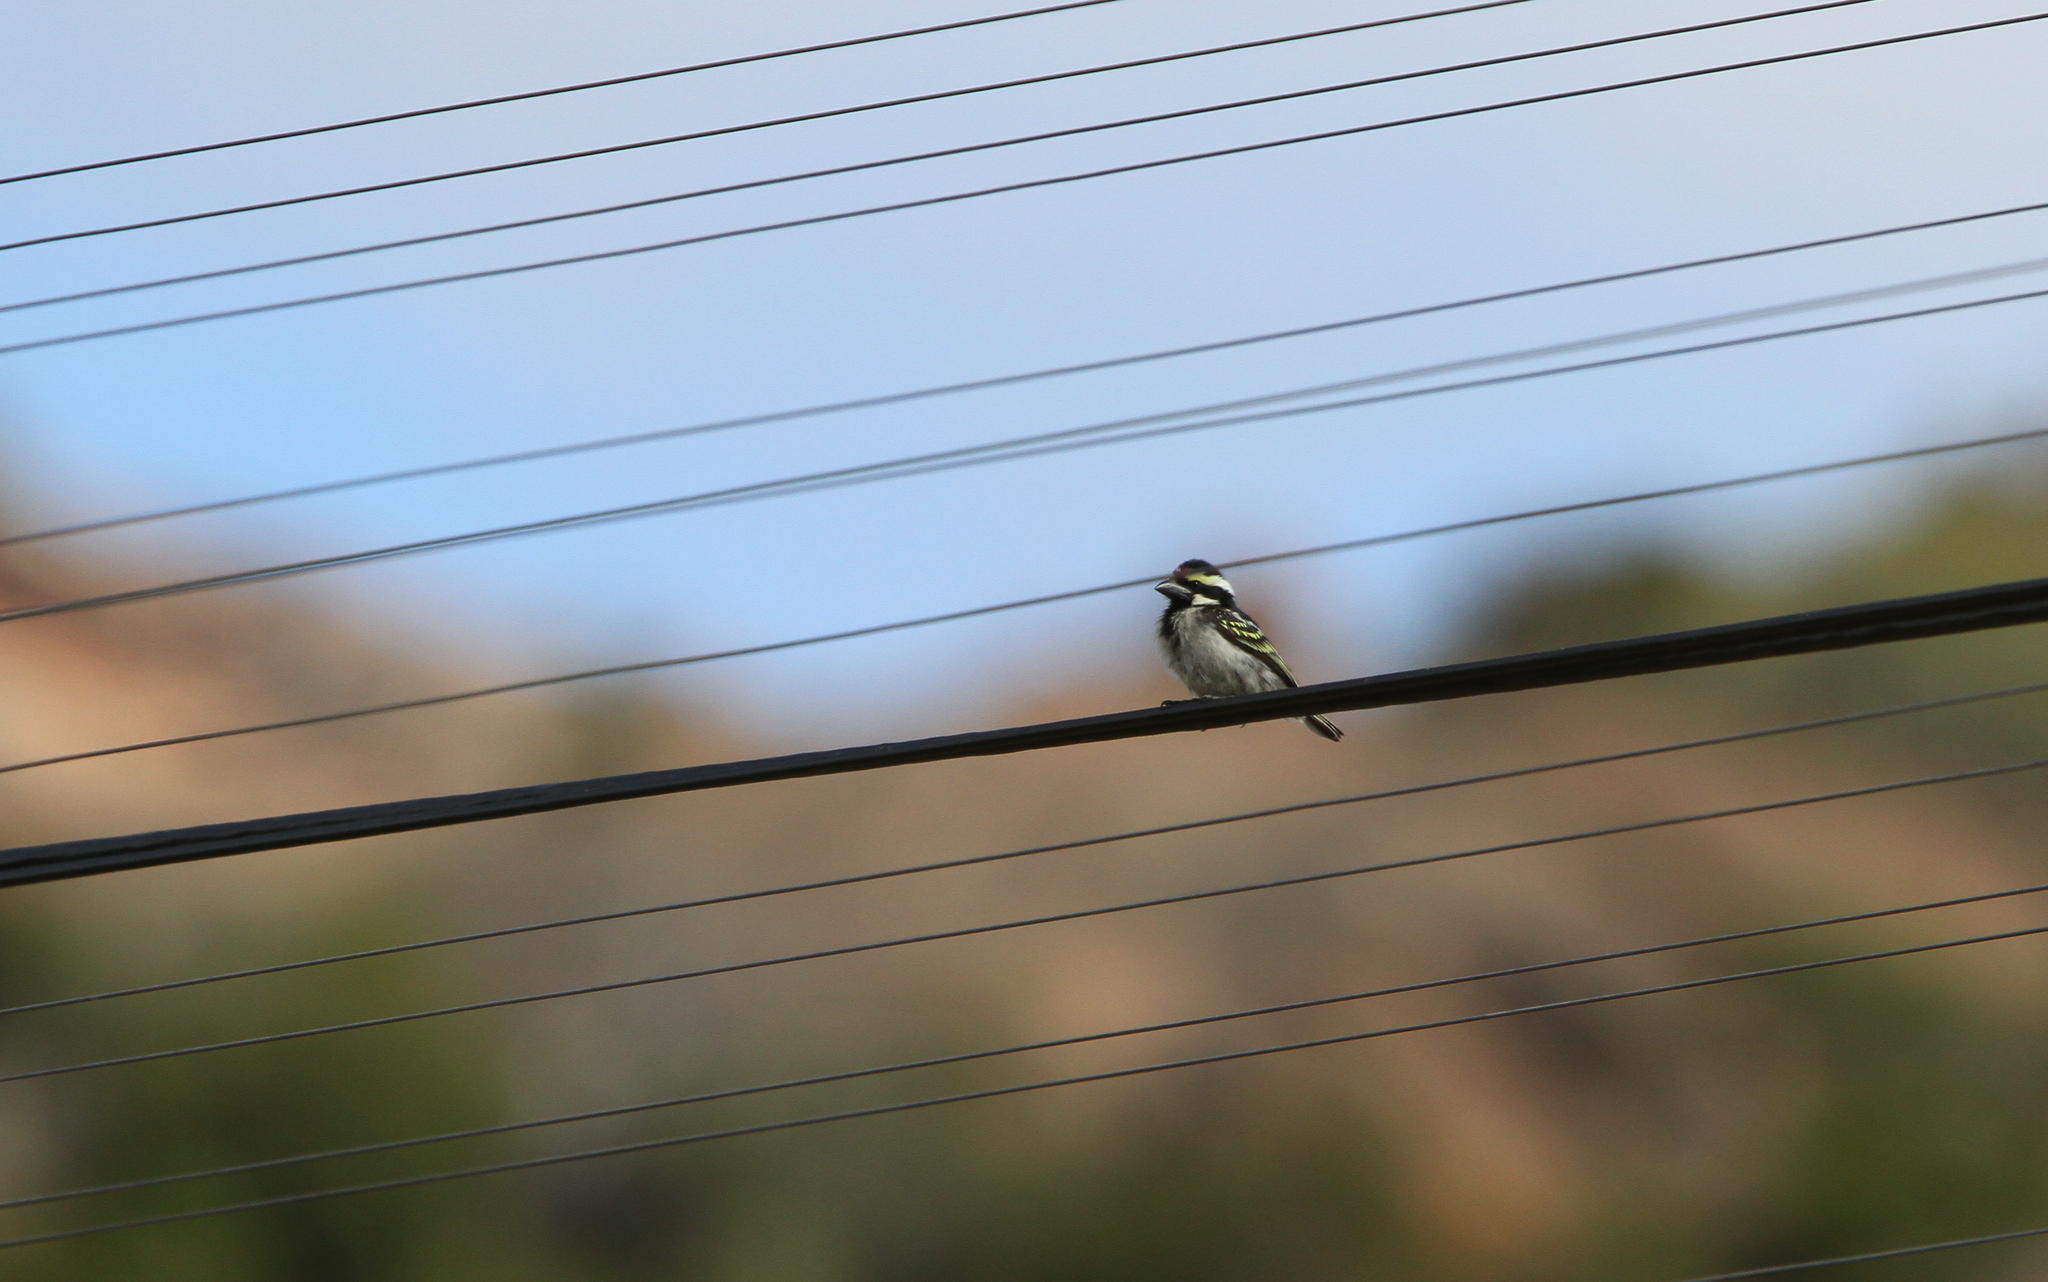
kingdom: Animalia
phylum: Chordata
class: Aves
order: Piciformes
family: Lybiidae
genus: Tricholaema
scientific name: Tricholaema leucomelas
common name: Acacia pied barbet
